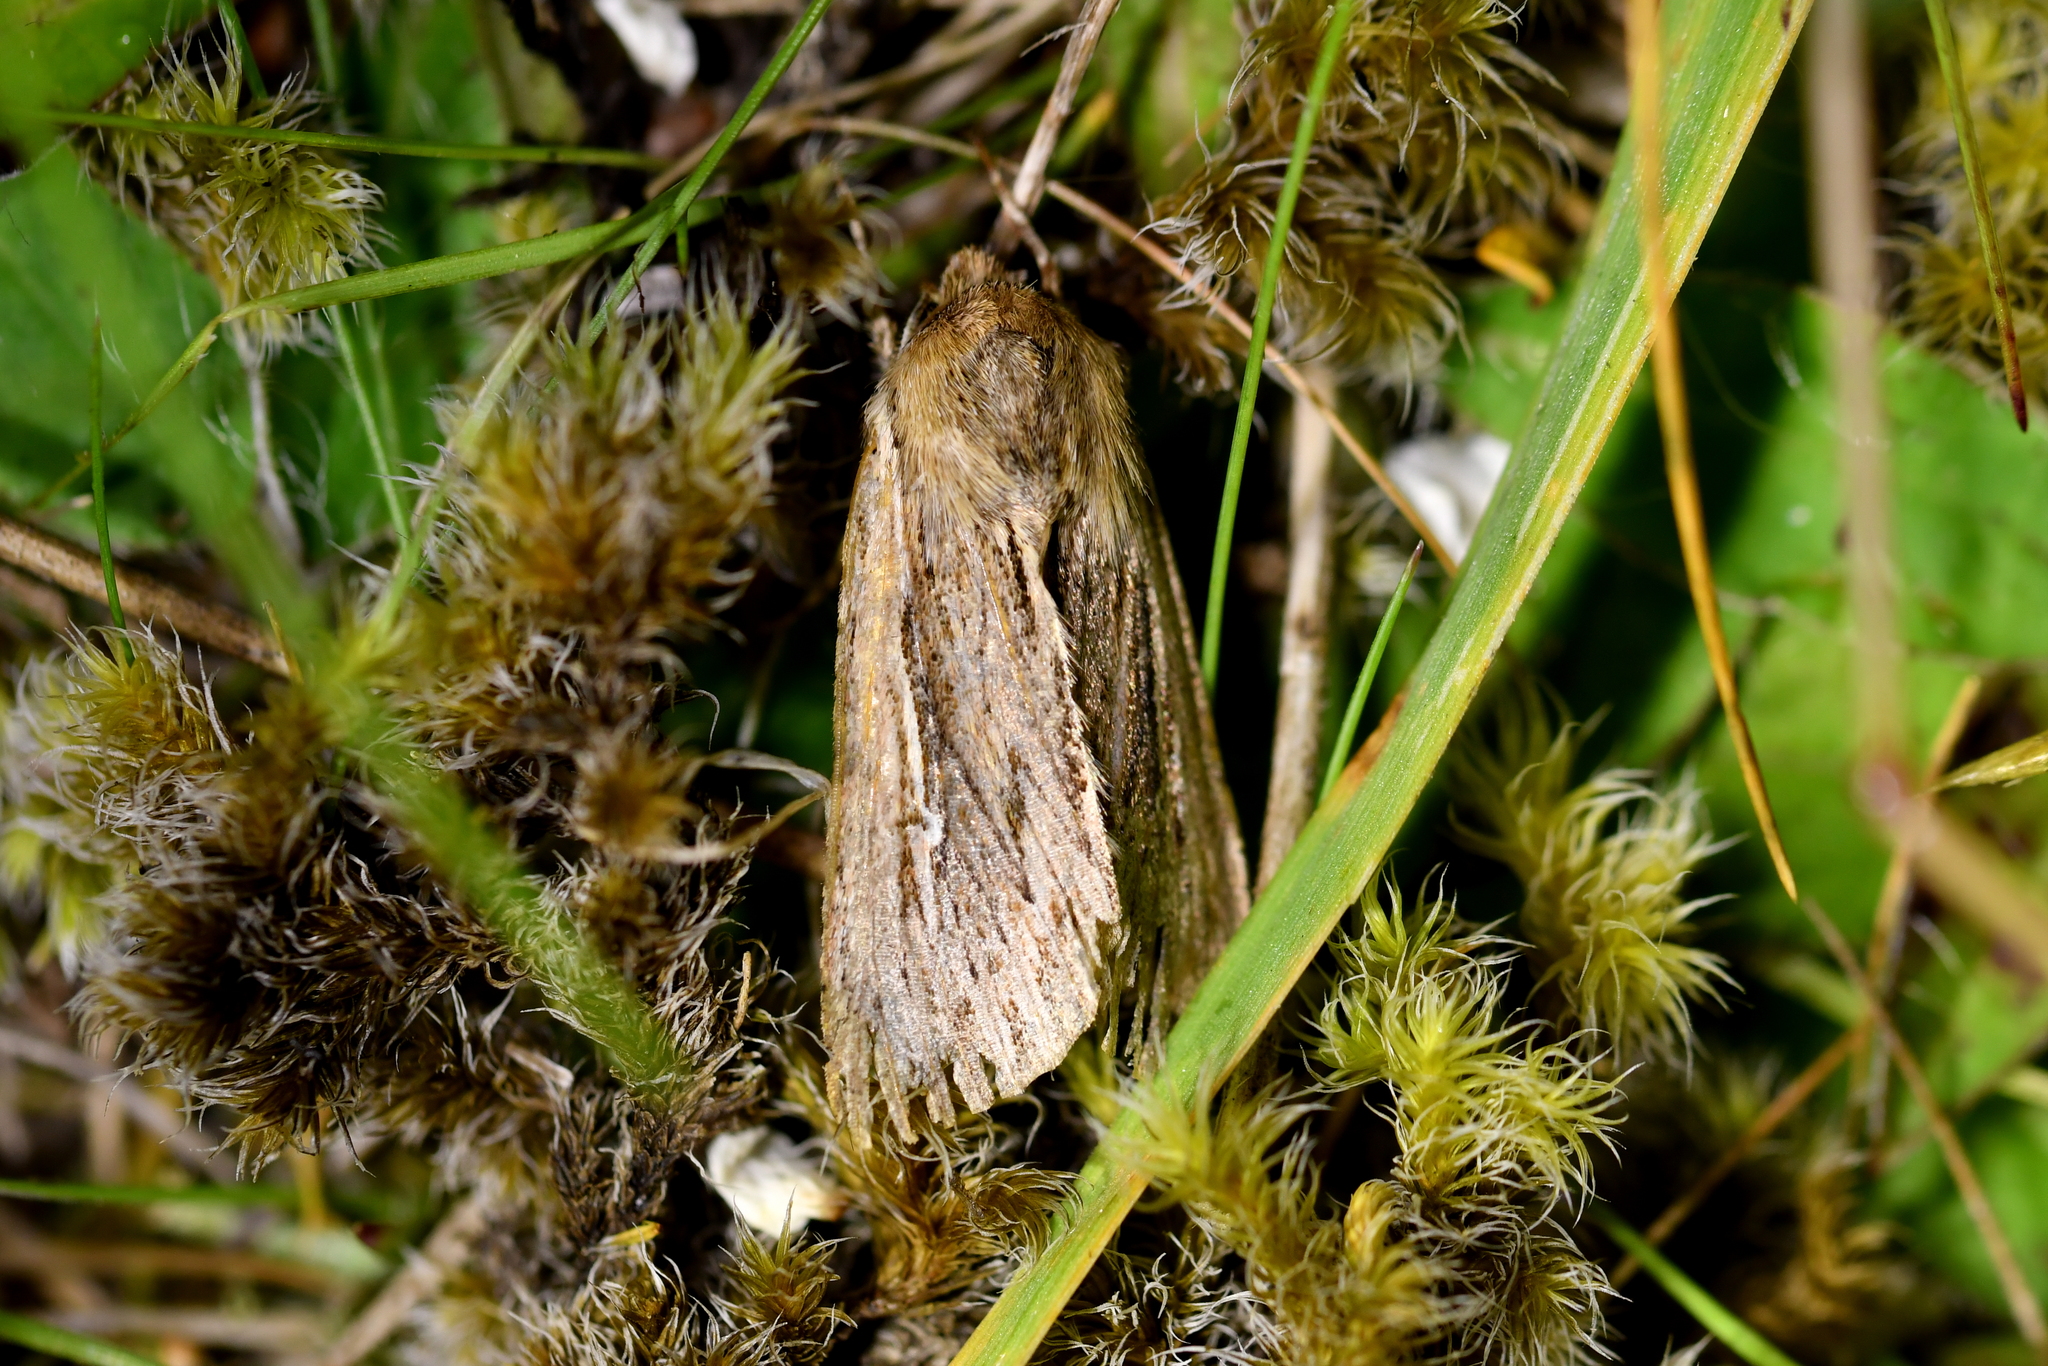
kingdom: Animalia
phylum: Arthropoda
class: Insecta
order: Lepidoptera
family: Noctuidae
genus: Persectania
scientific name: Persectania aversa
